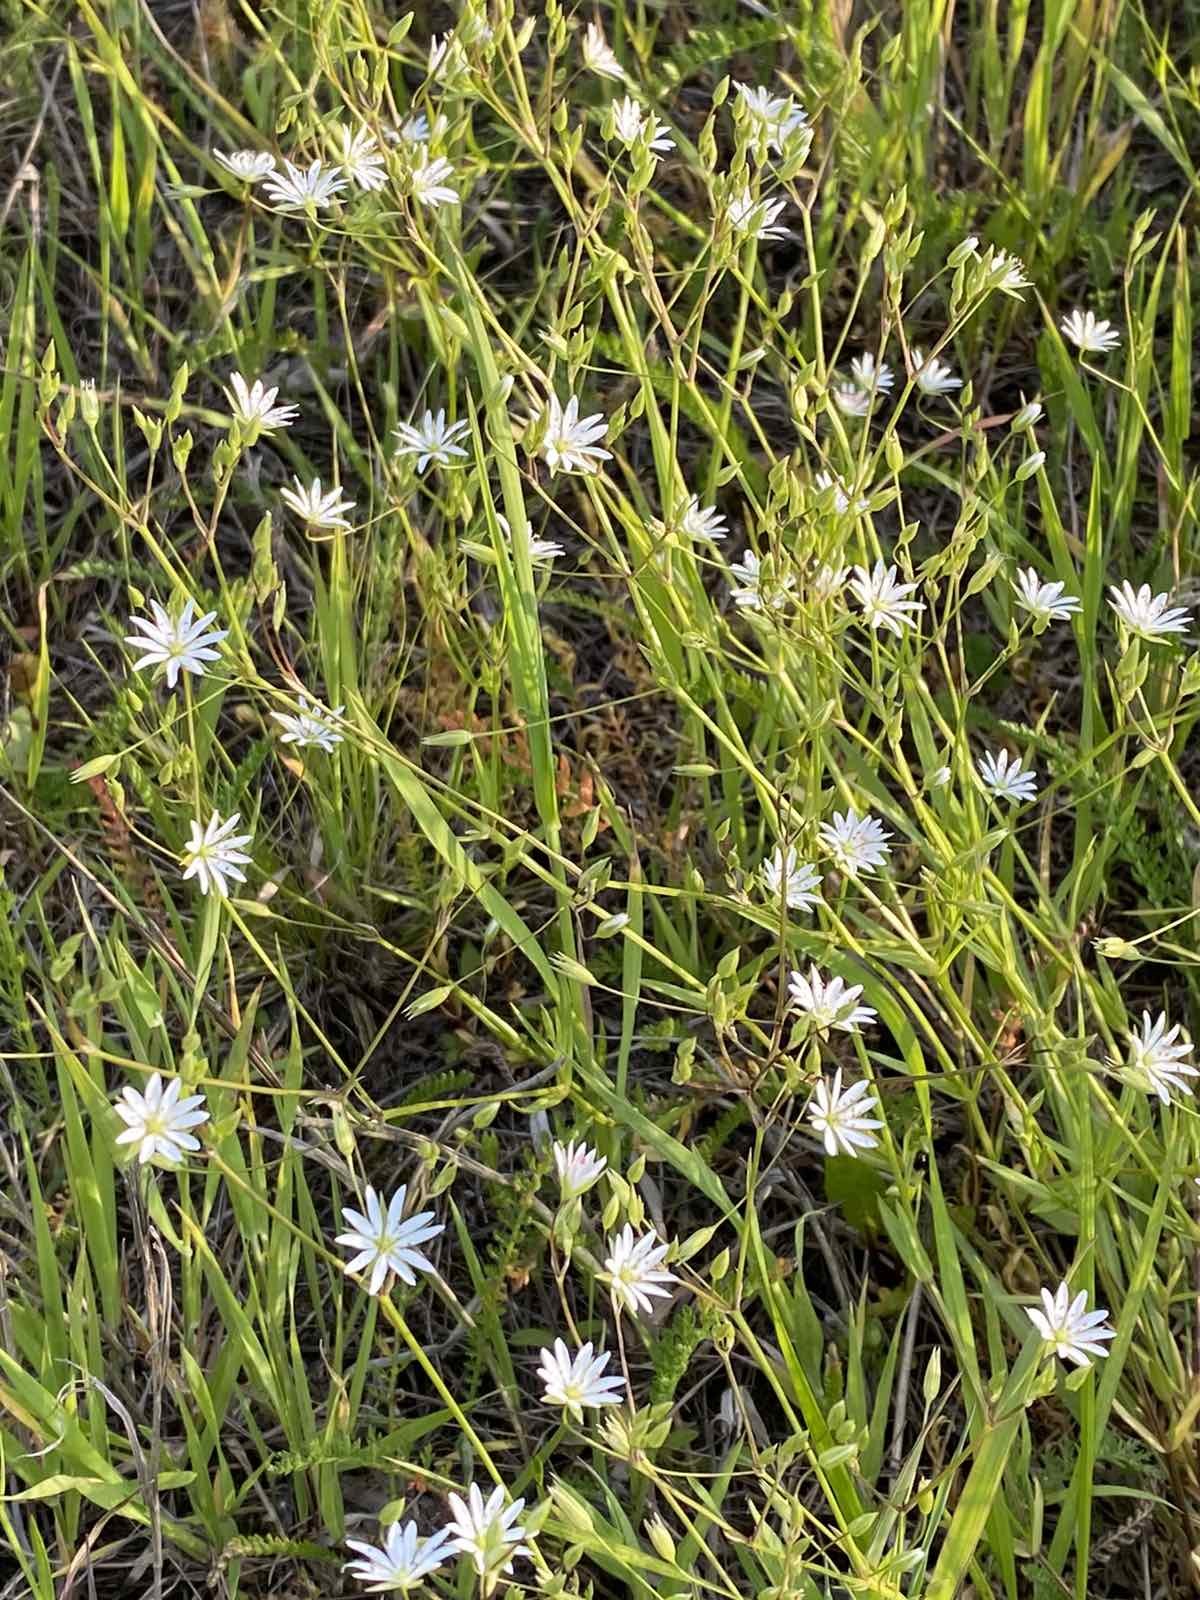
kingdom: Plantae
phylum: Tracheophyta
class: Magnoliopsida
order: Caryophyllales
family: Caryophyllaceae
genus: Stellaria
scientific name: Stellaria graminea
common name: Grass-like starwort
